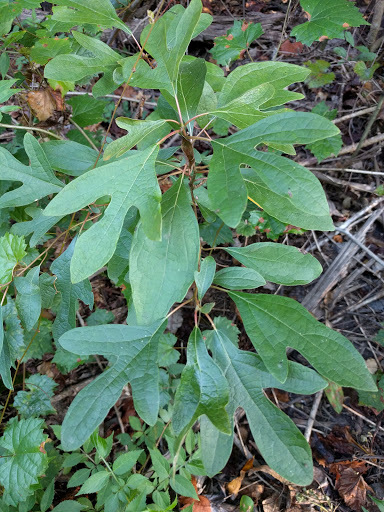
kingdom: Plantae
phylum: Tracheophyta
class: Magnoliopsida
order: Laurales
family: Lauraceae
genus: Sassafras
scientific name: Sassafras albidum
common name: Sassafras
